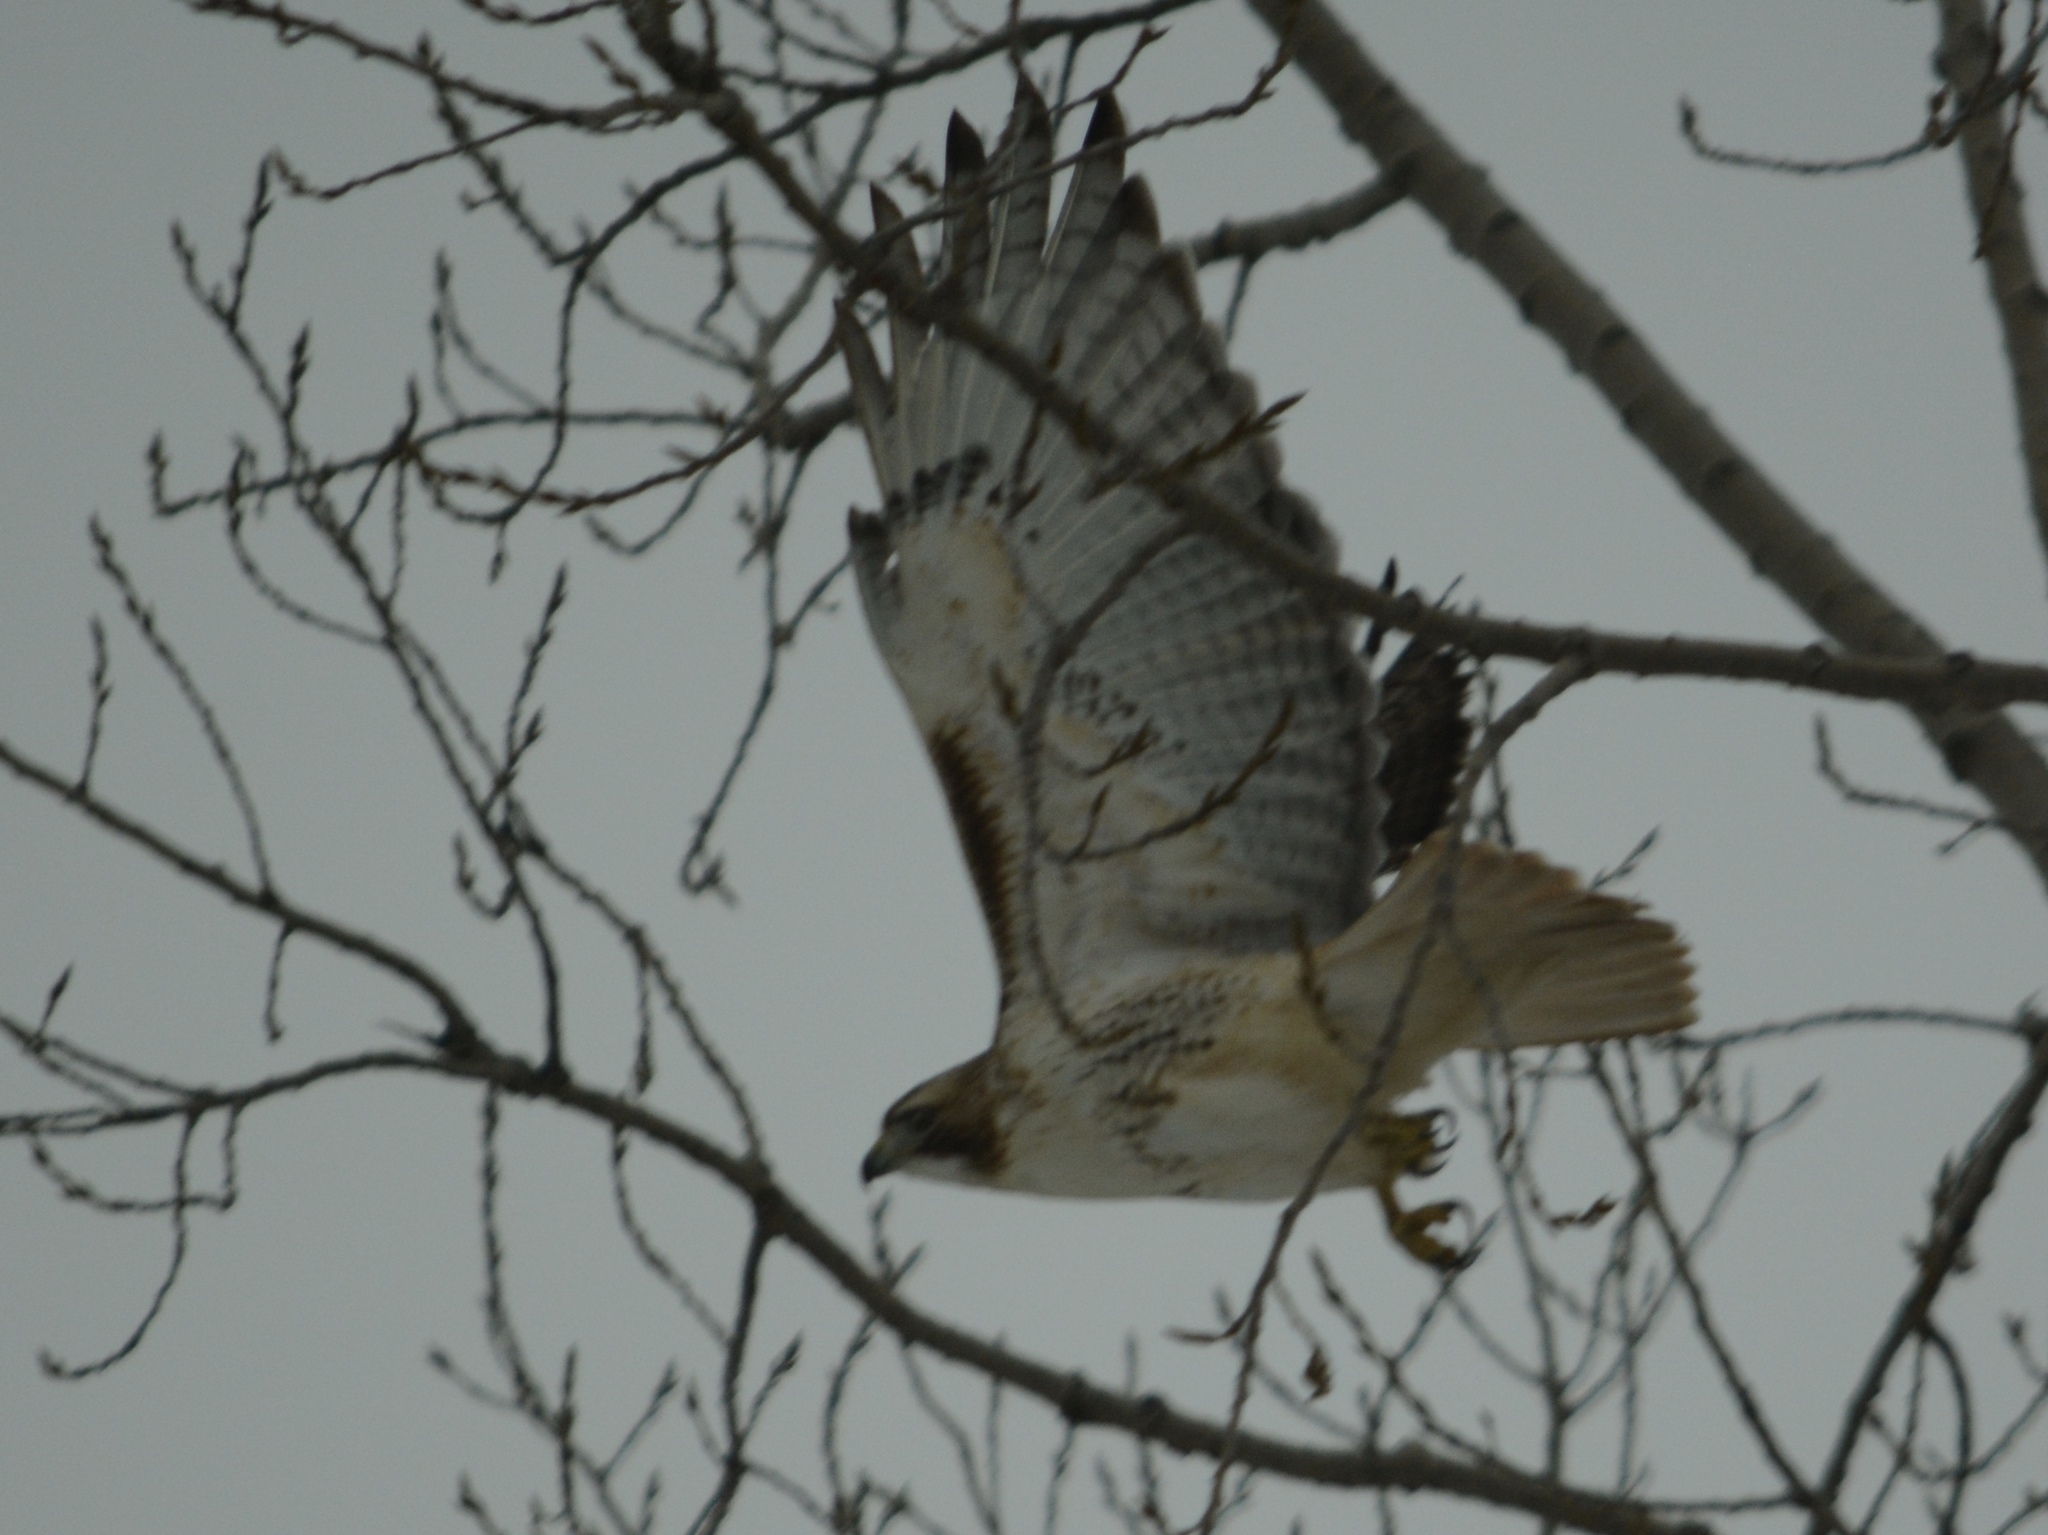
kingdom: Animalia
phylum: Chordata
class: Aves
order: Accipitriformes
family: Accipitridae
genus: Buteo
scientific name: Buteo jamaicensis
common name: Red-tailed hawk
